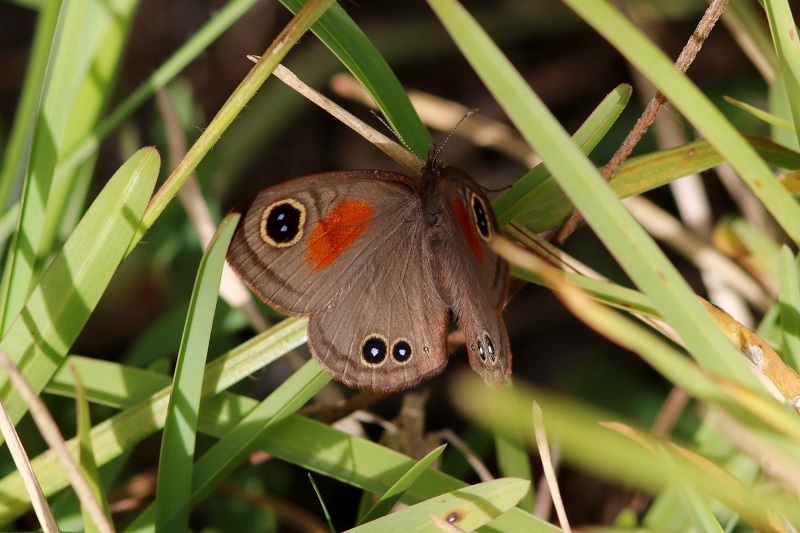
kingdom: Animalia
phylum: Arthropoda
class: Insecta
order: Lepidoptera
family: Nymphalidae
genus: Cassionympha
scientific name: Cassionympha cassius
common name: Rainforest brown
